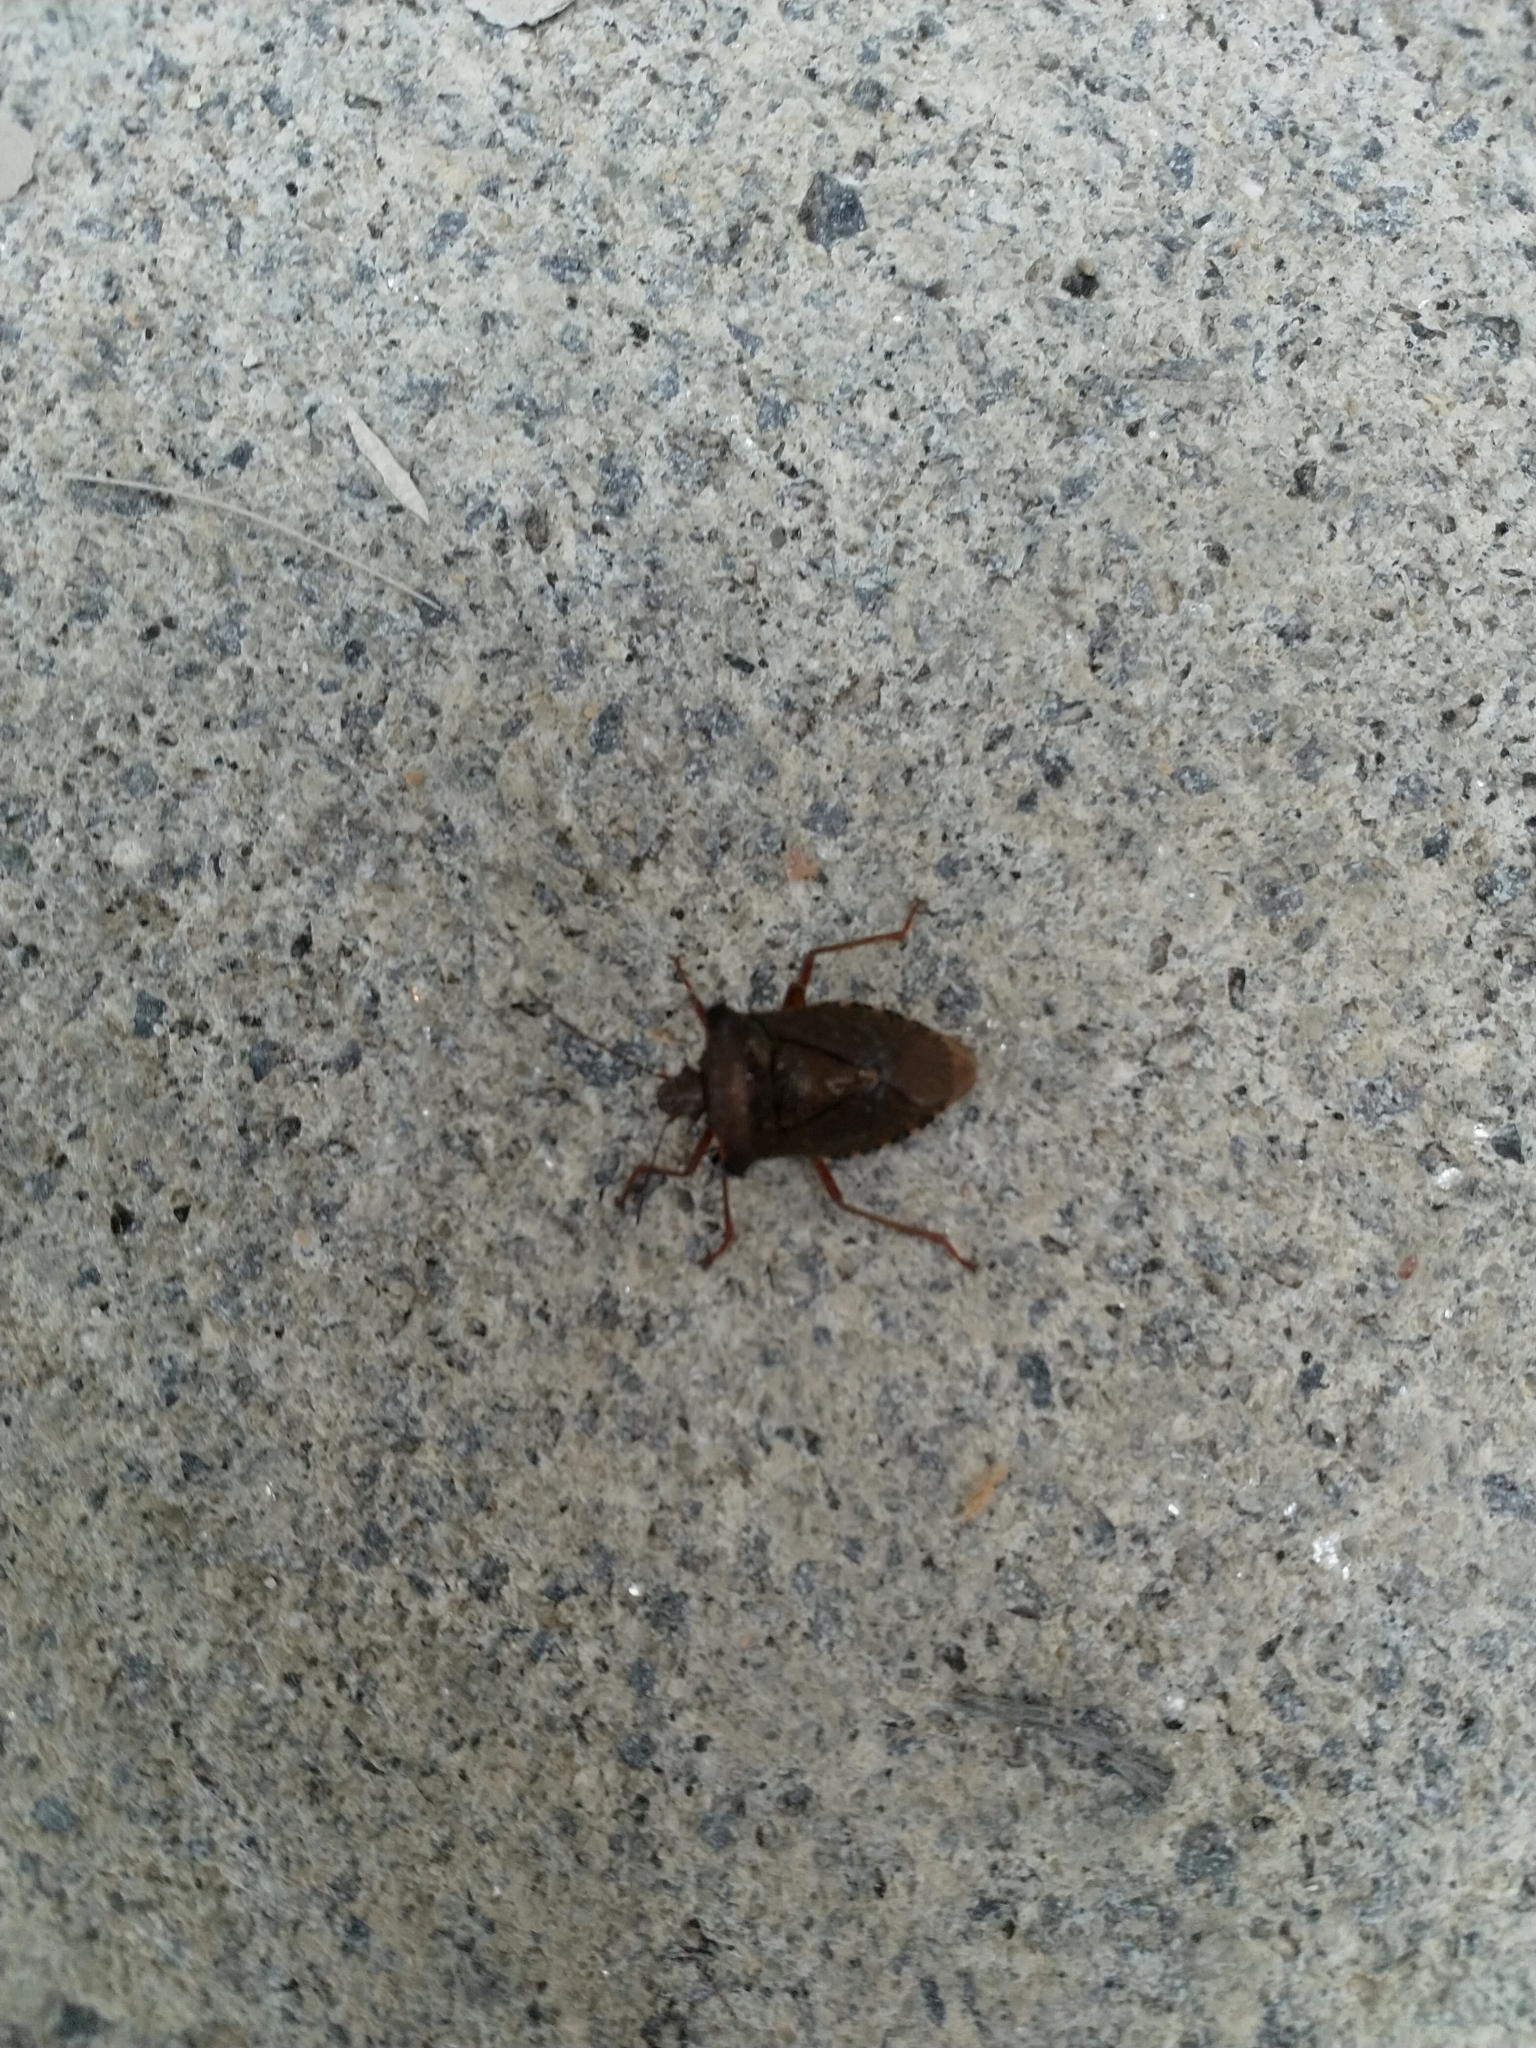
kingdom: Animalia
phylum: Arthropoda
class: Insecta
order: Hemiptera
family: Pentatomidae
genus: Pentatoma
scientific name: Pentatoma rufipes
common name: Forest bug
